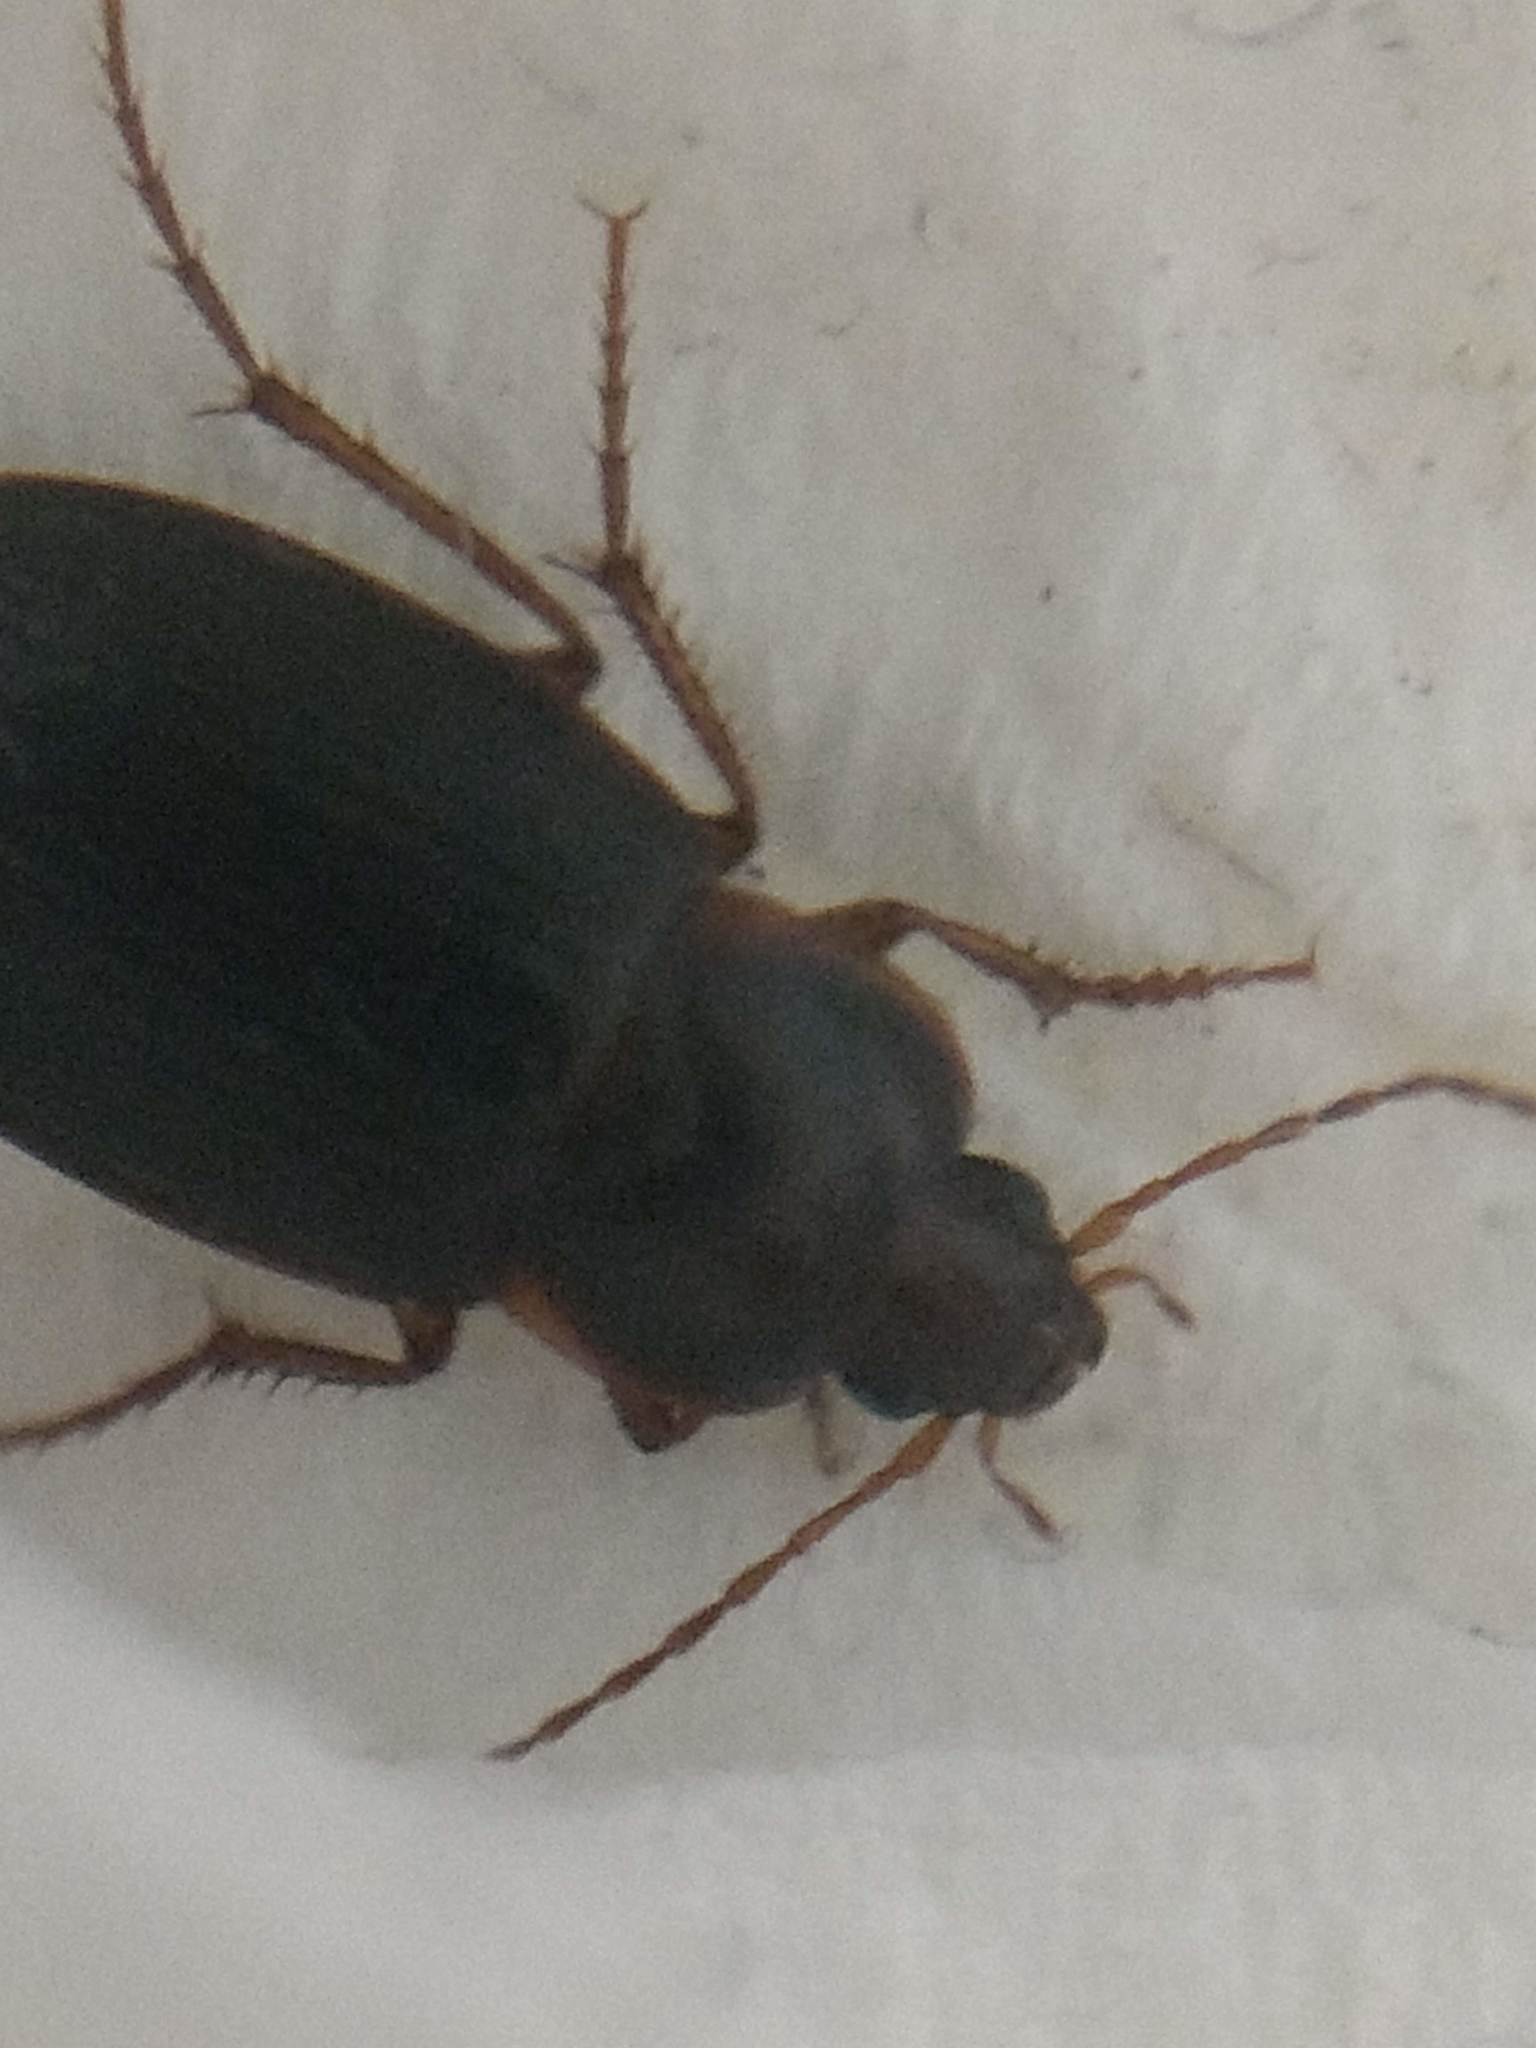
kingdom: Animalia
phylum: Arthropoda
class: Insecta
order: Coleoptera
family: Carabidae
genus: Calathus
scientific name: Calathus ruficollis
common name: Red-collared harp ground beetle
